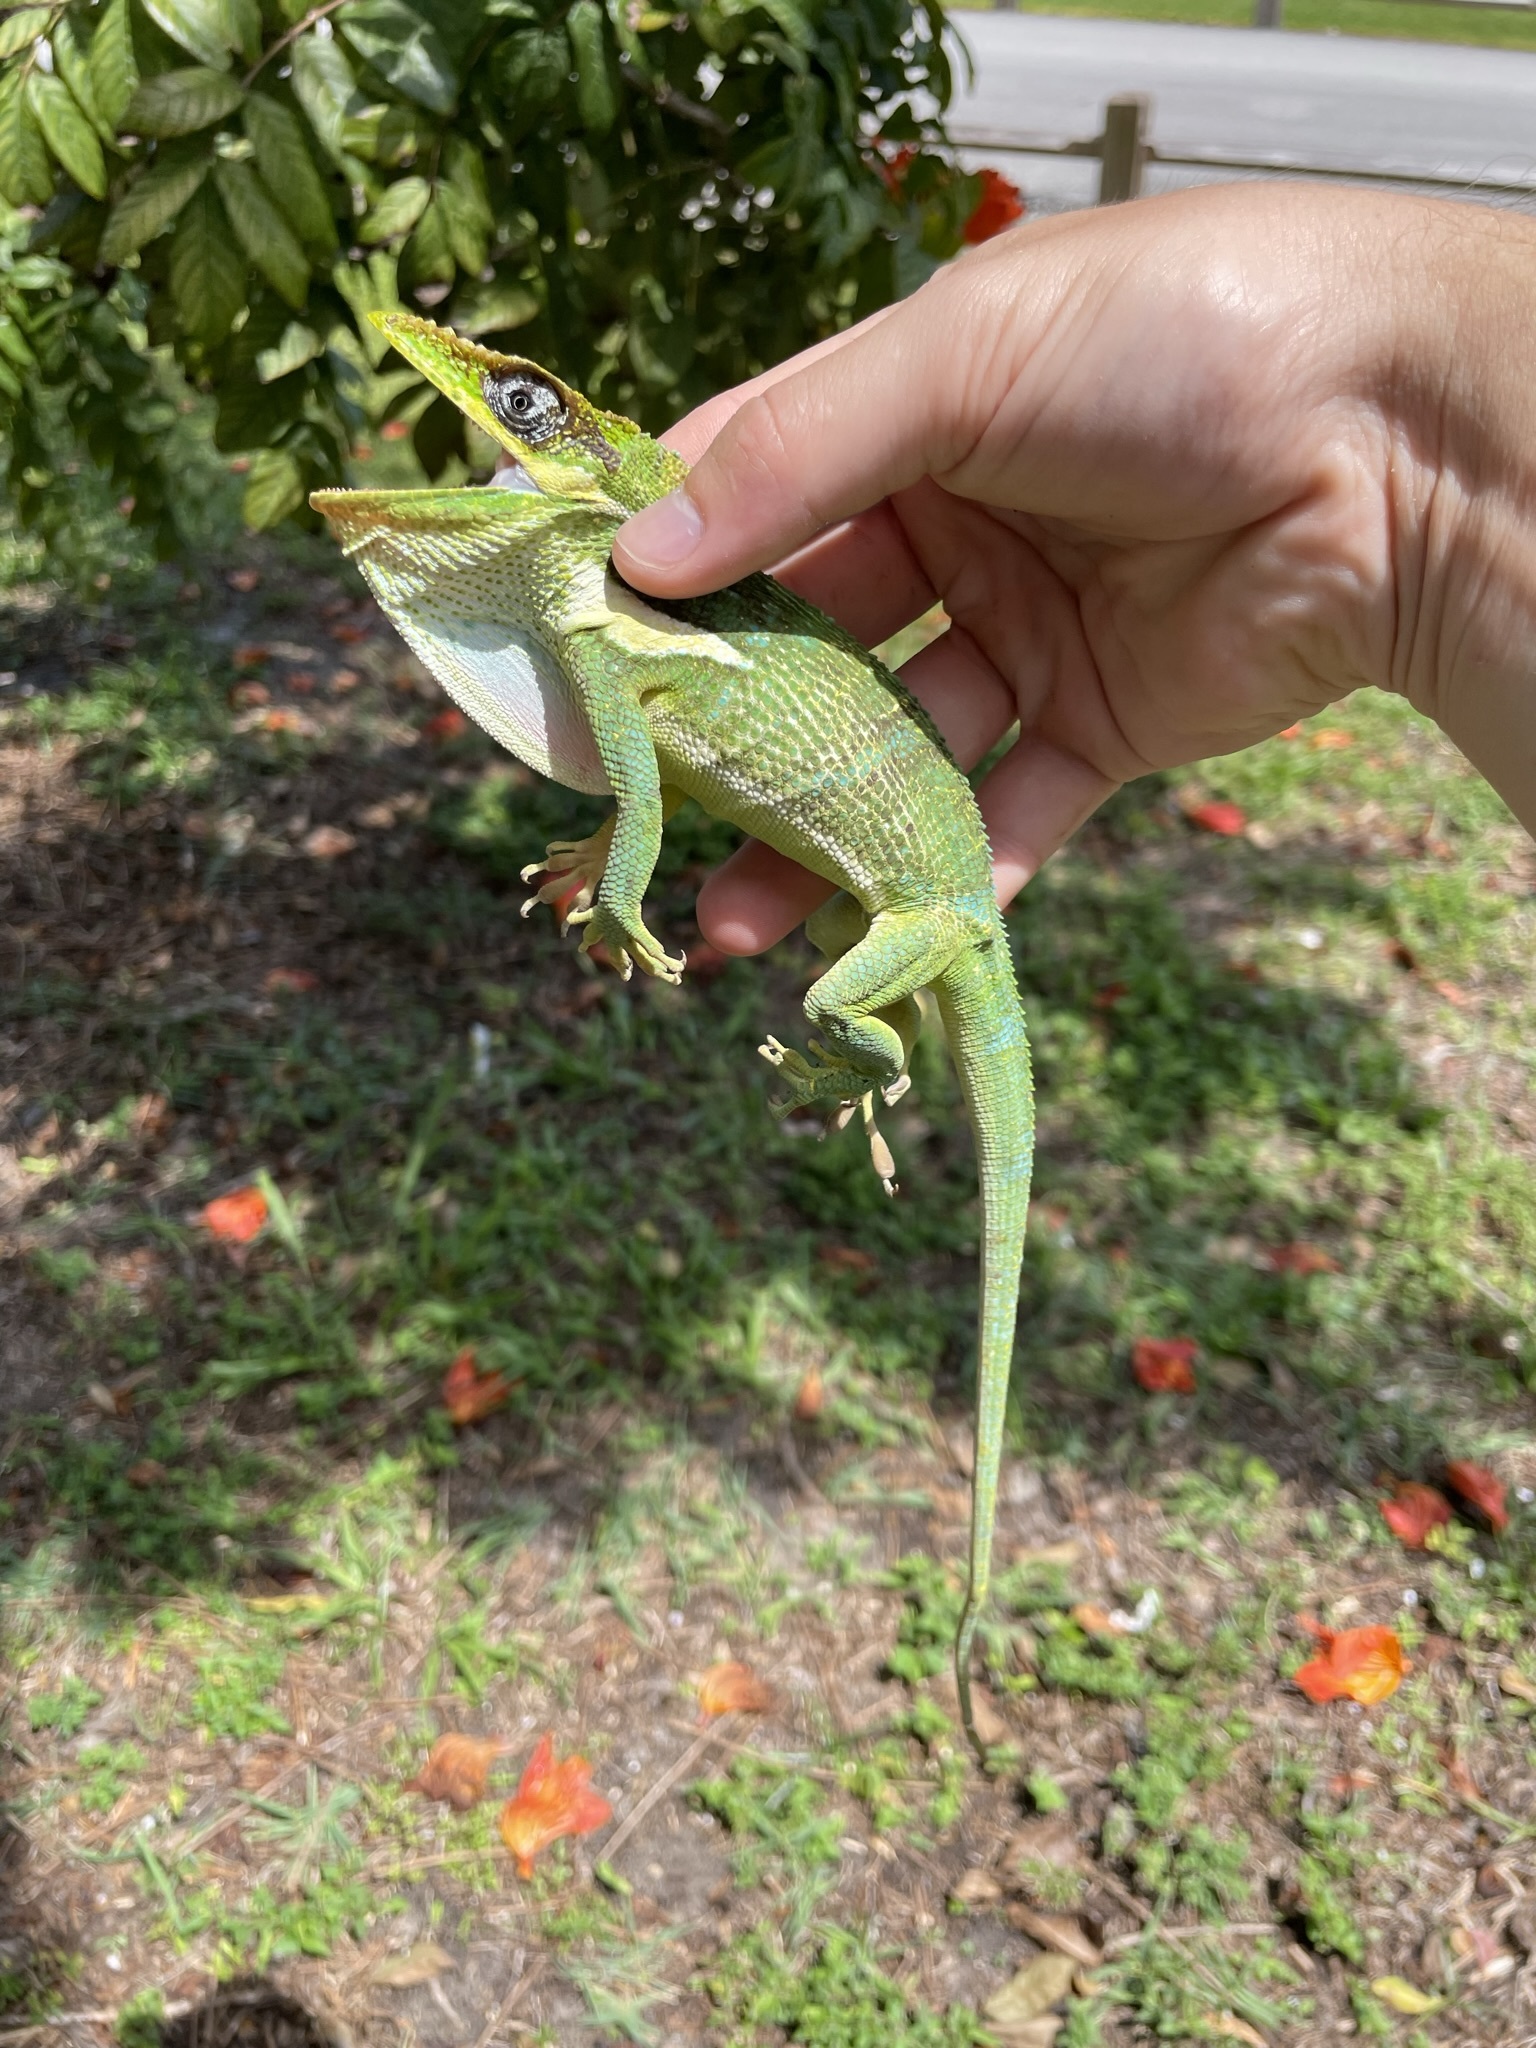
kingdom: Animalia
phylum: Chordata
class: Squamata
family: Dactyloidae
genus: Anolis
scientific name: Anolis equestris
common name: Knight anole
